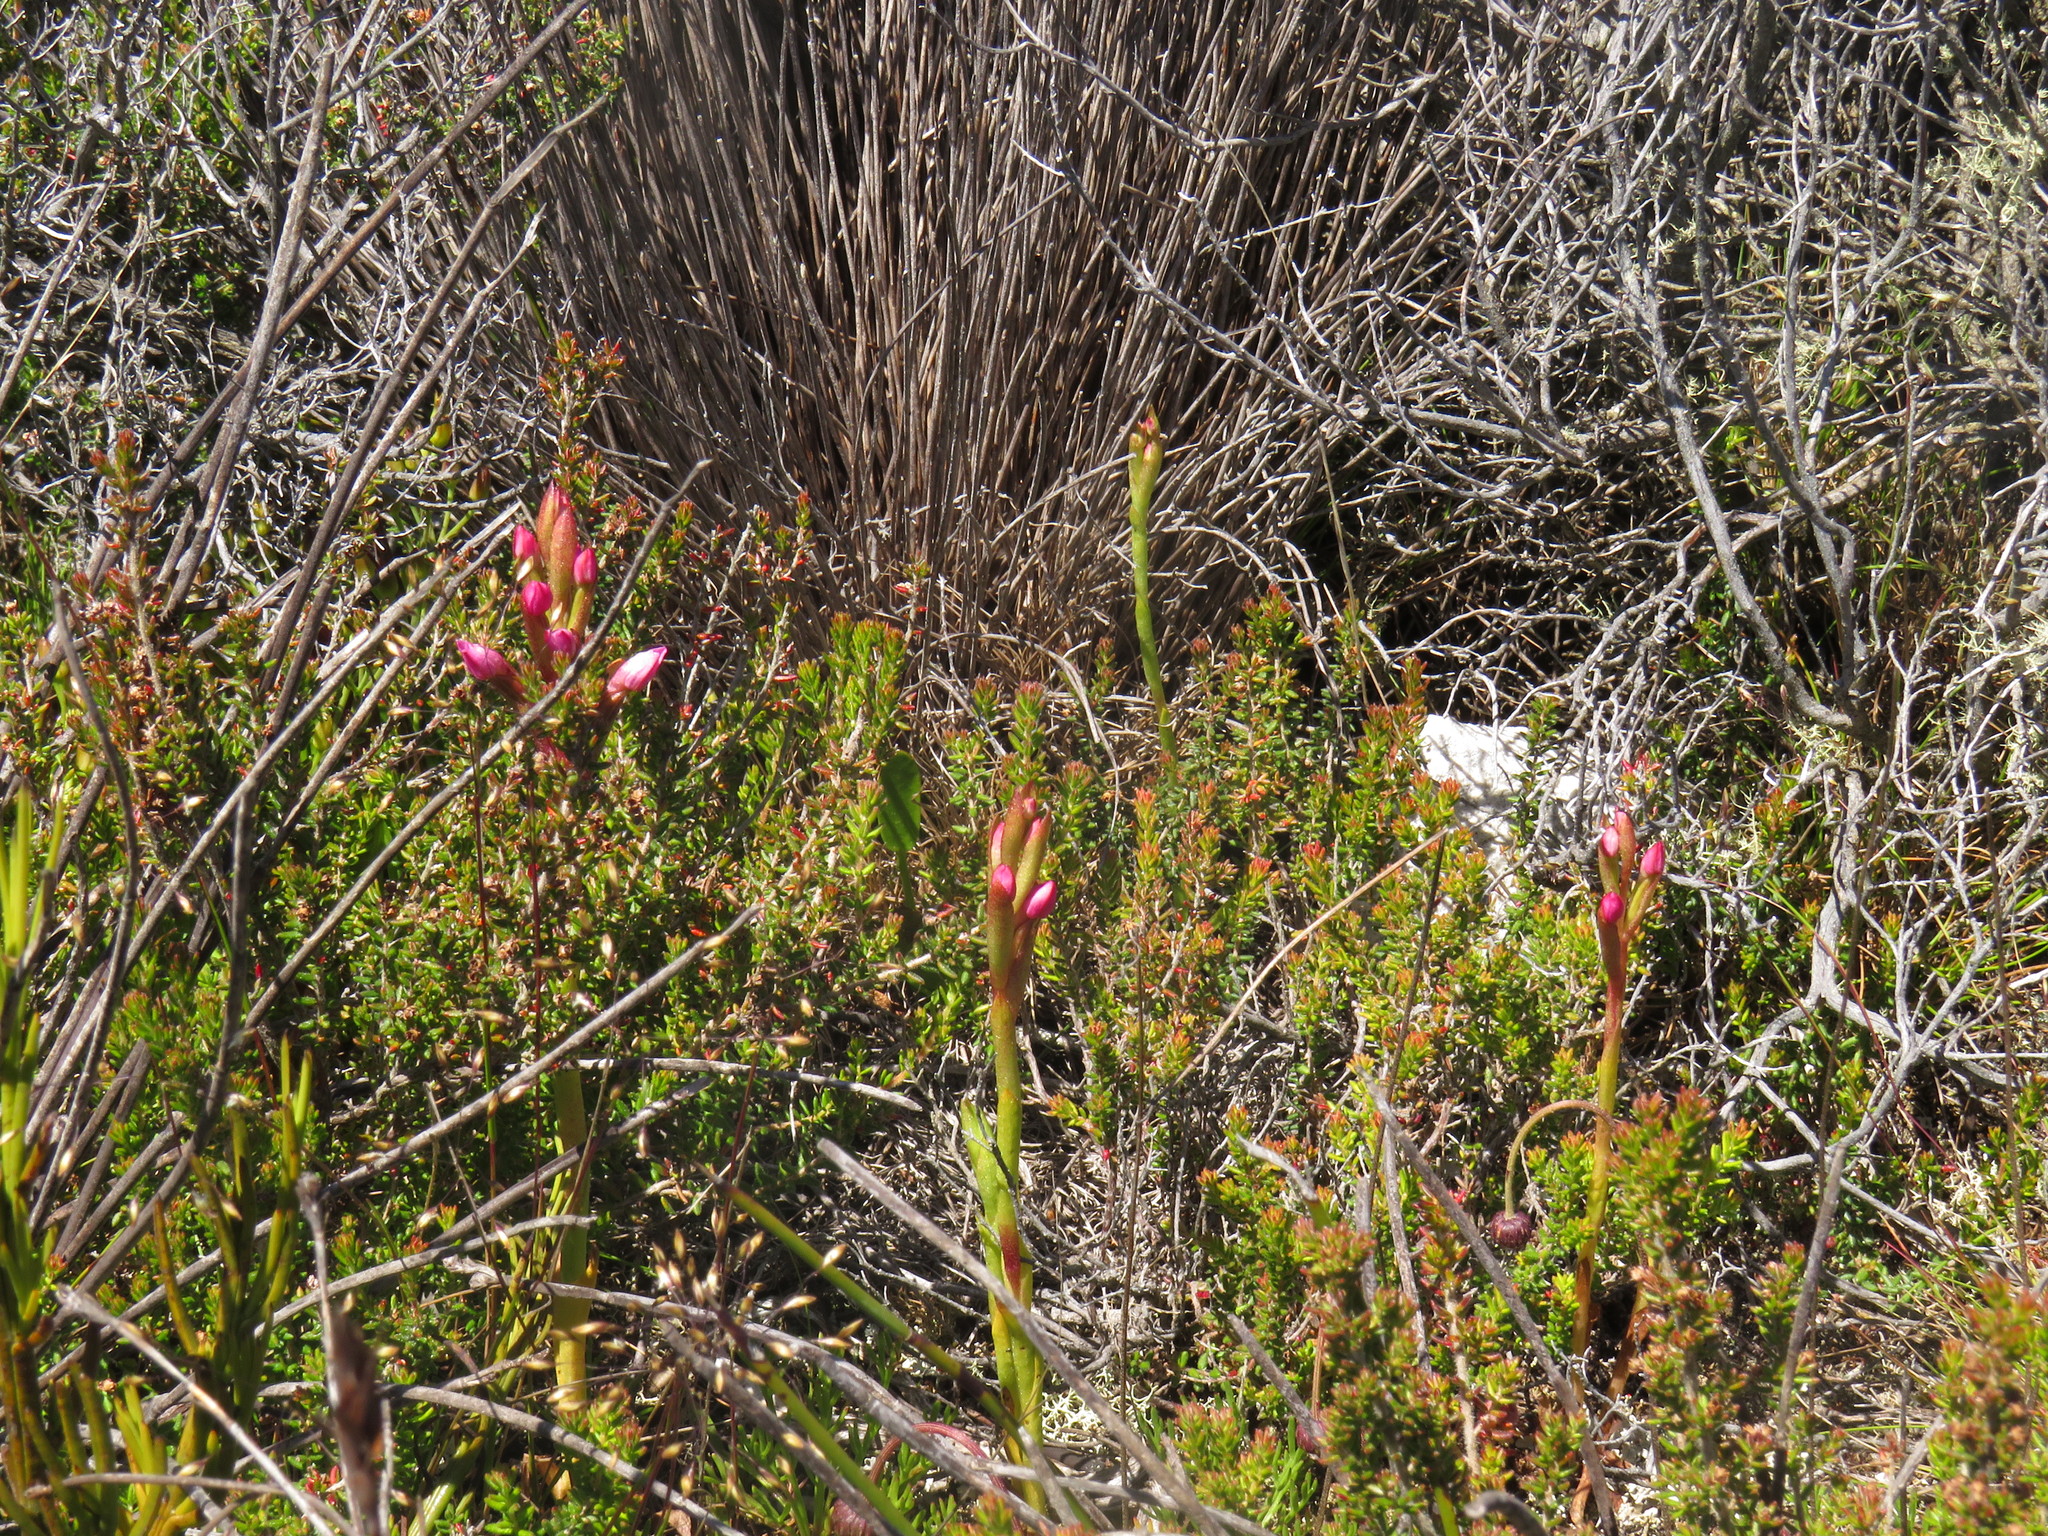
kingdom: Plantae
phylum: Tracheophyta
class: Liliopsida
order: Asparagales
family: Orchidaceae
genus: Disa
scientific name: Disa vaginata
